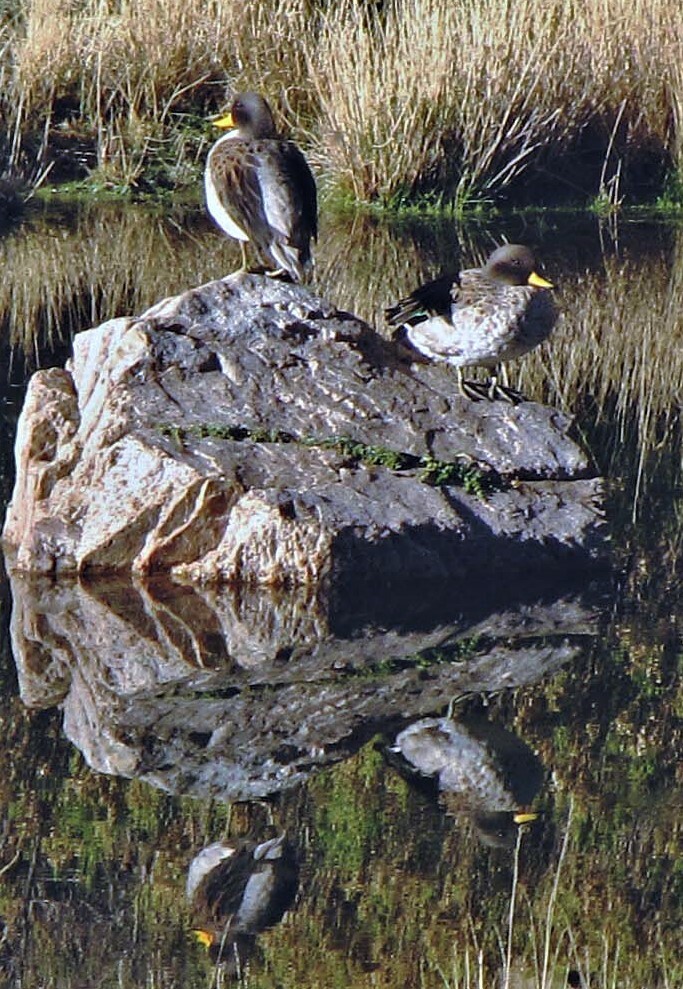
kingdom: Animalia
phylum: Chordata
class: Aves
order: Anseriformes
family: Anatidae
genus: Anas
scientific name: Anas flavirostris
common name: Yellow-billed teal
